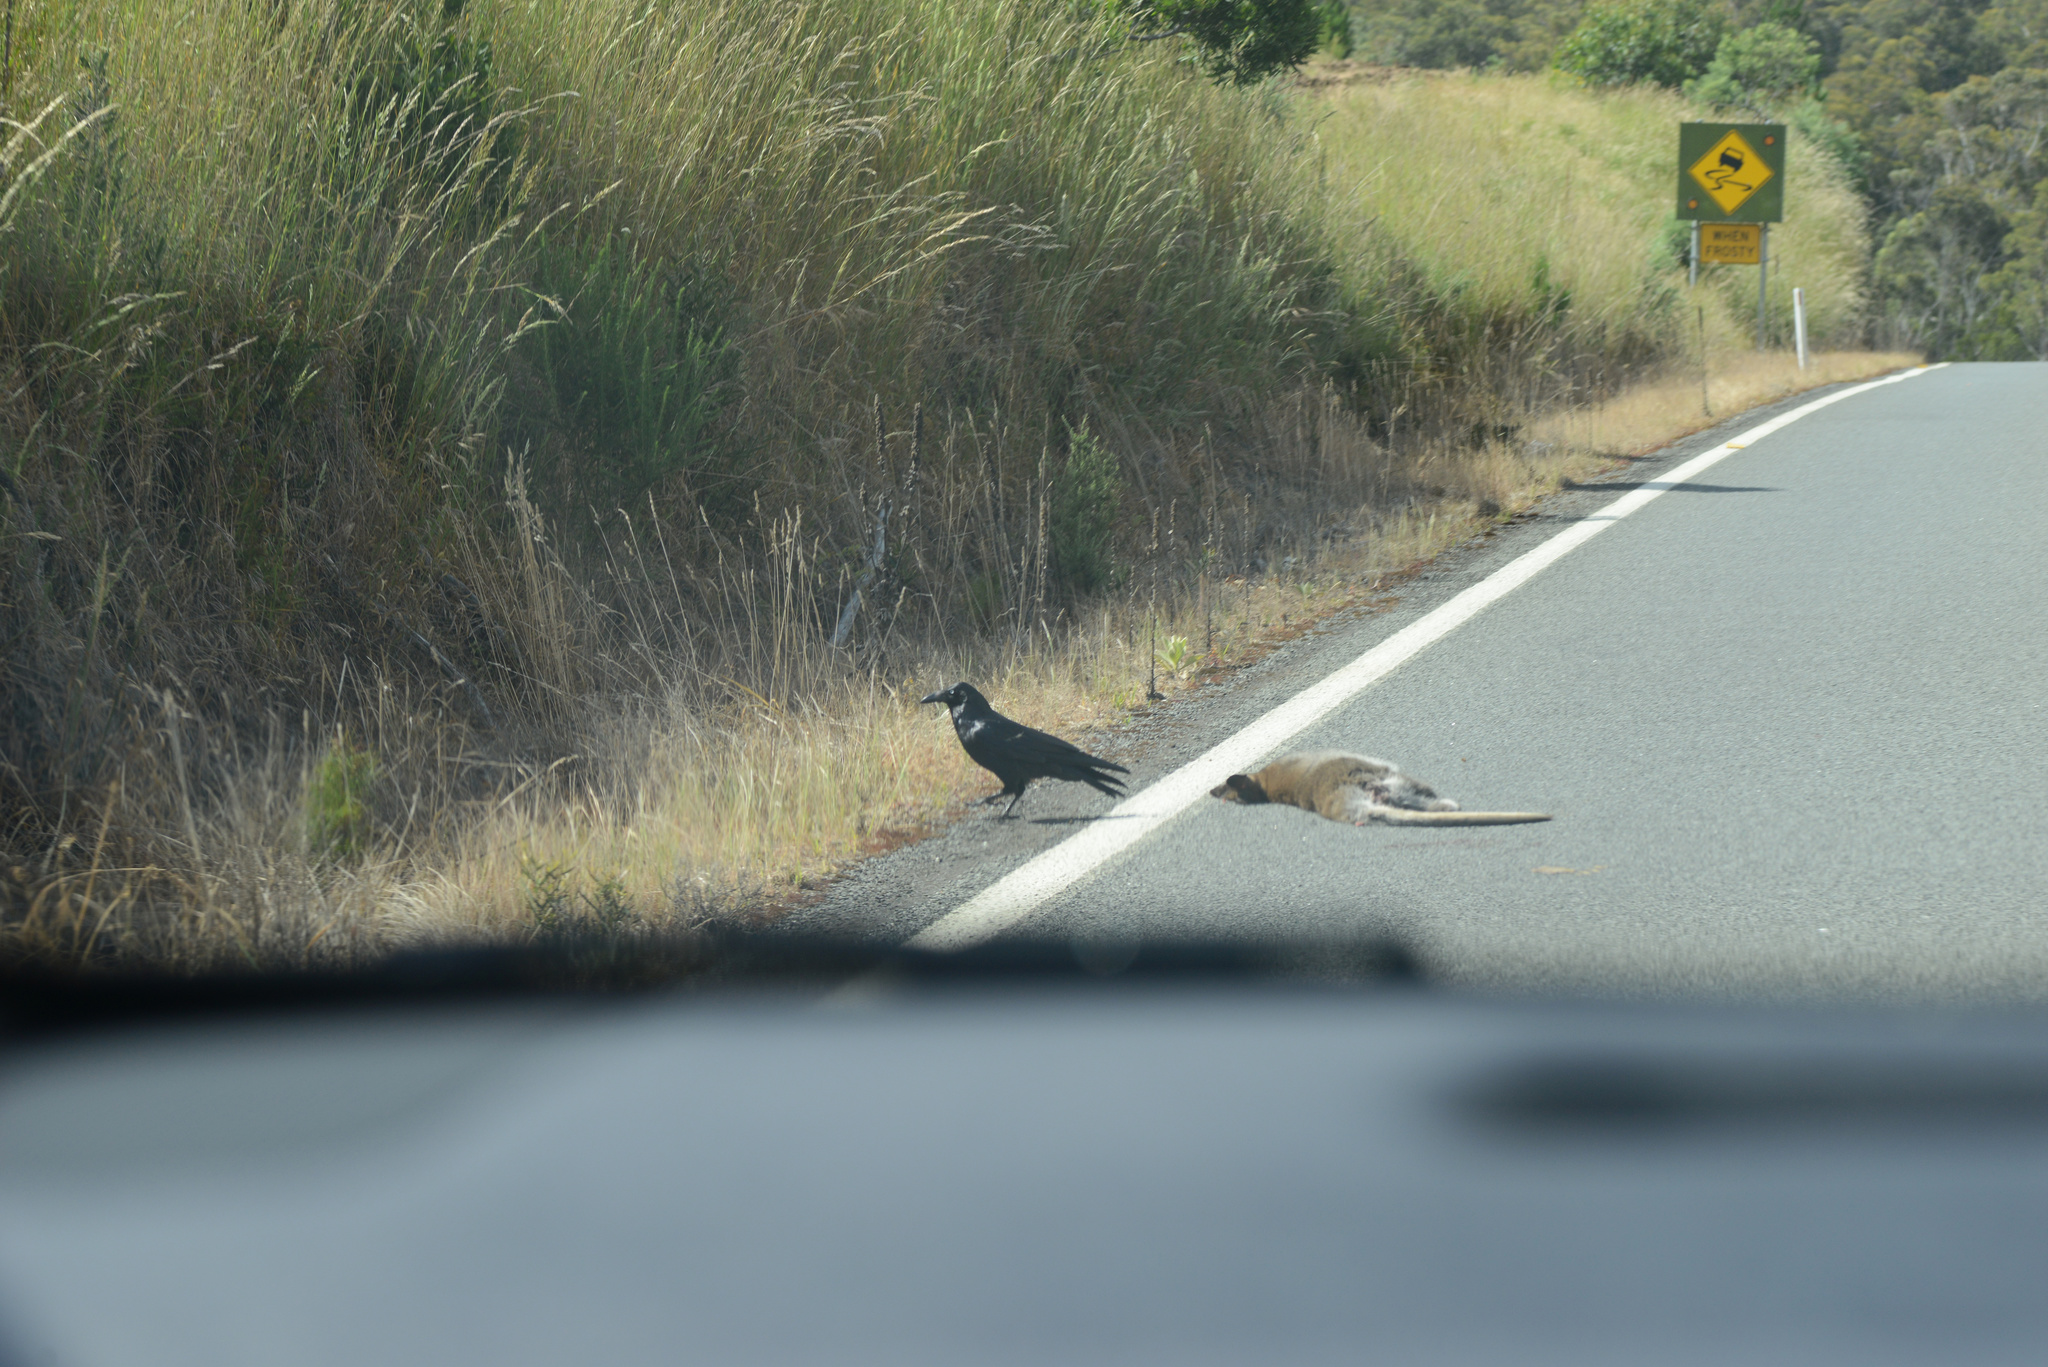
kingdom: Animalia
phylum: Chordata
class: Mammalia
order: Diprotodontia
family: Macropodidae
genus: Notamacropus
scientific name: Notamacropus rufogriseus
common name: Red-necked wallaby
